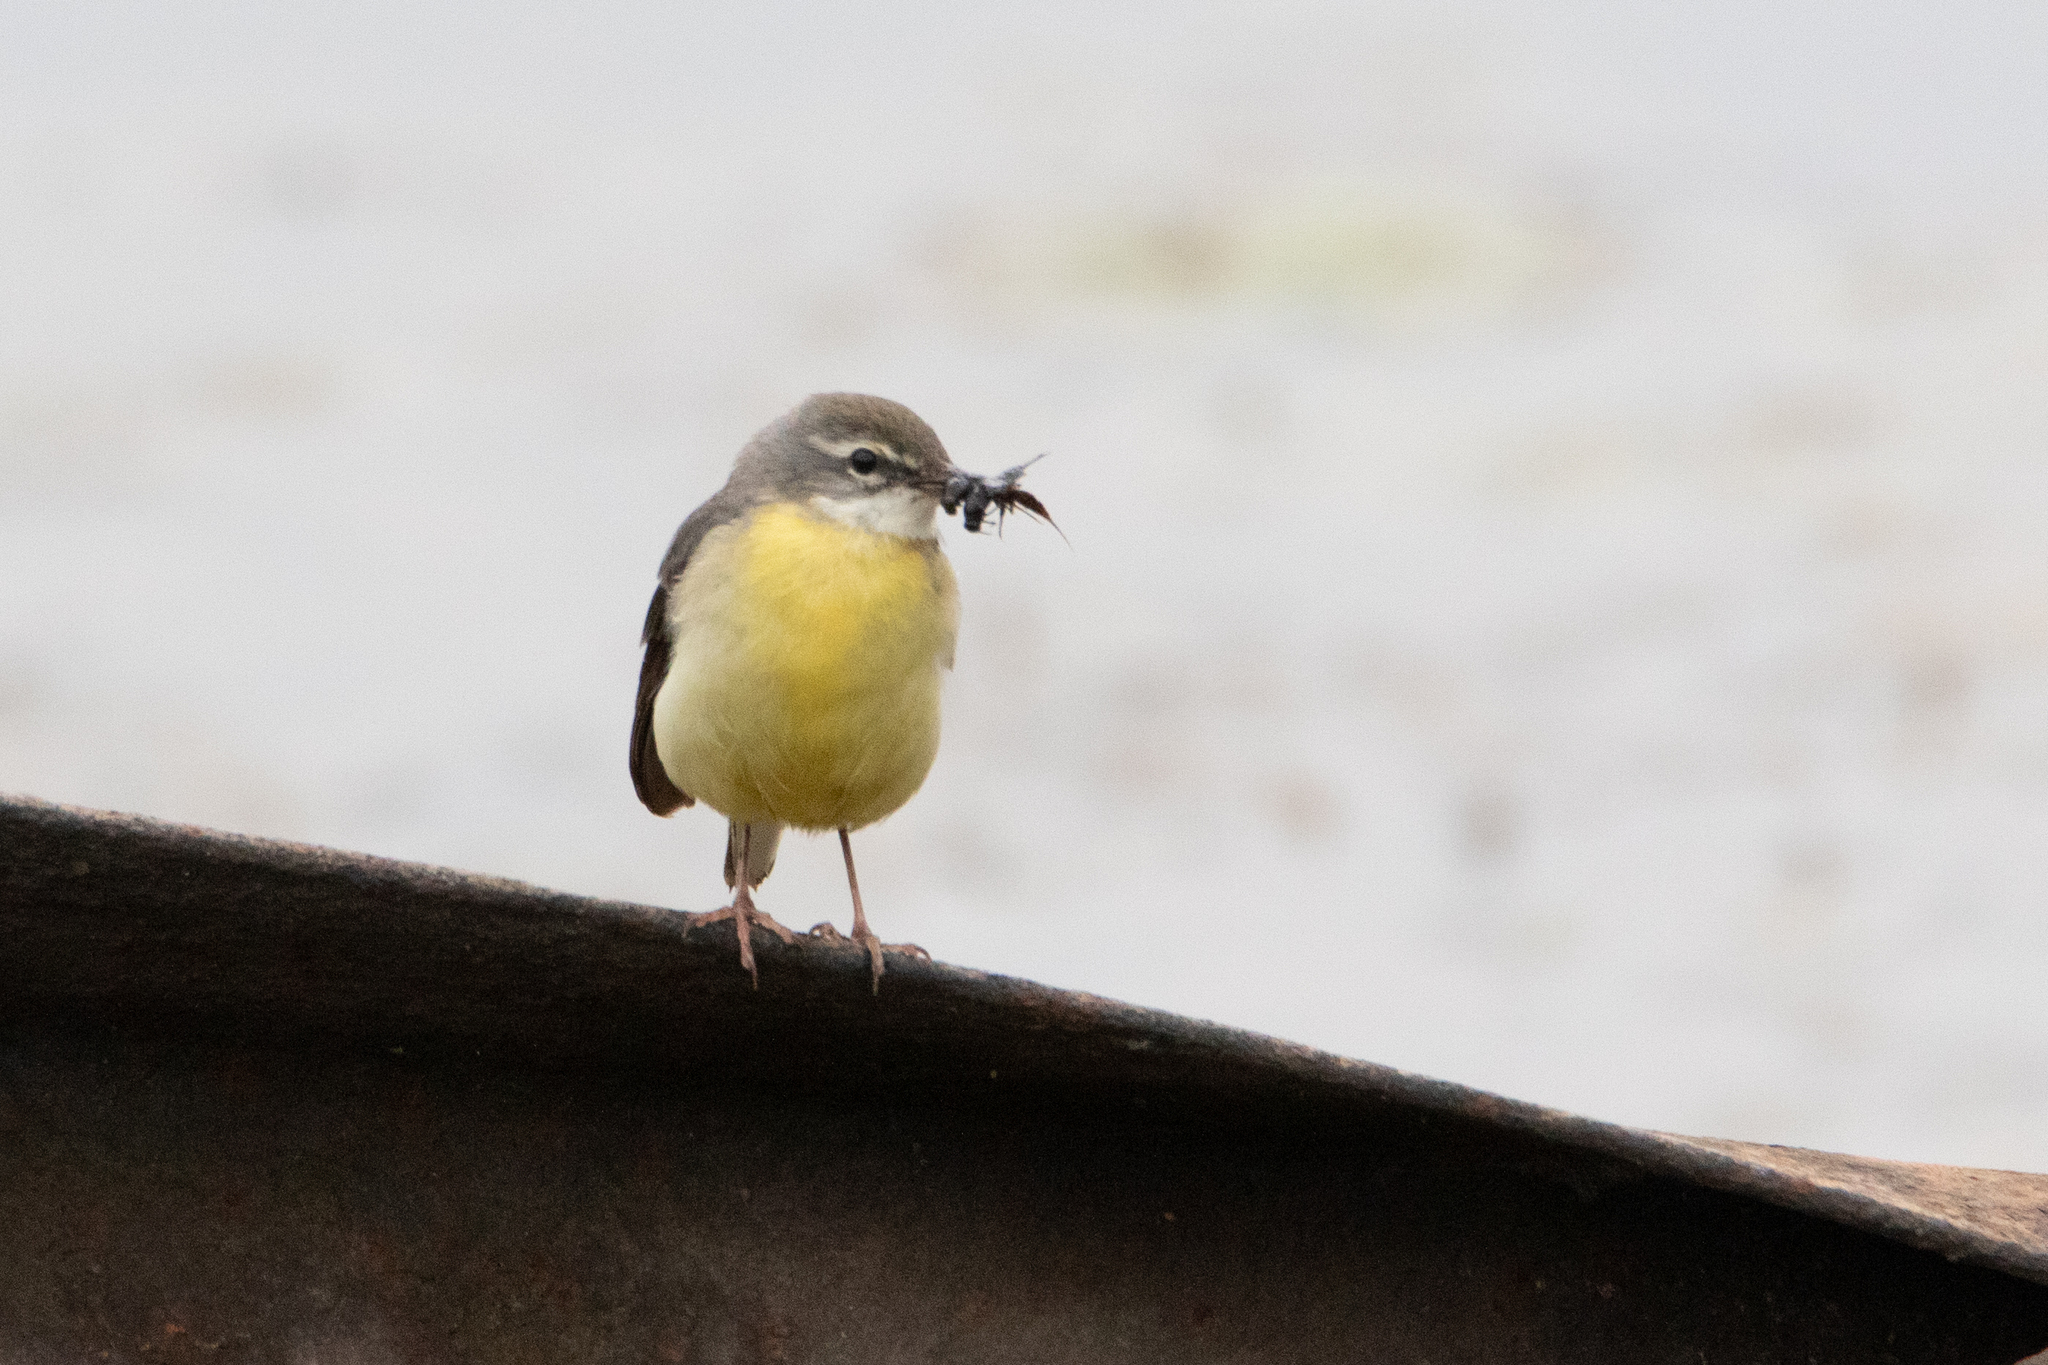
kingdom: Animalia
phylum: Chordata
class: Aves
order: Passeriformes
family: Motacillidae
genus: Motacilla
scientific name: Motacilla cinerea
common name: Grey wagtail
